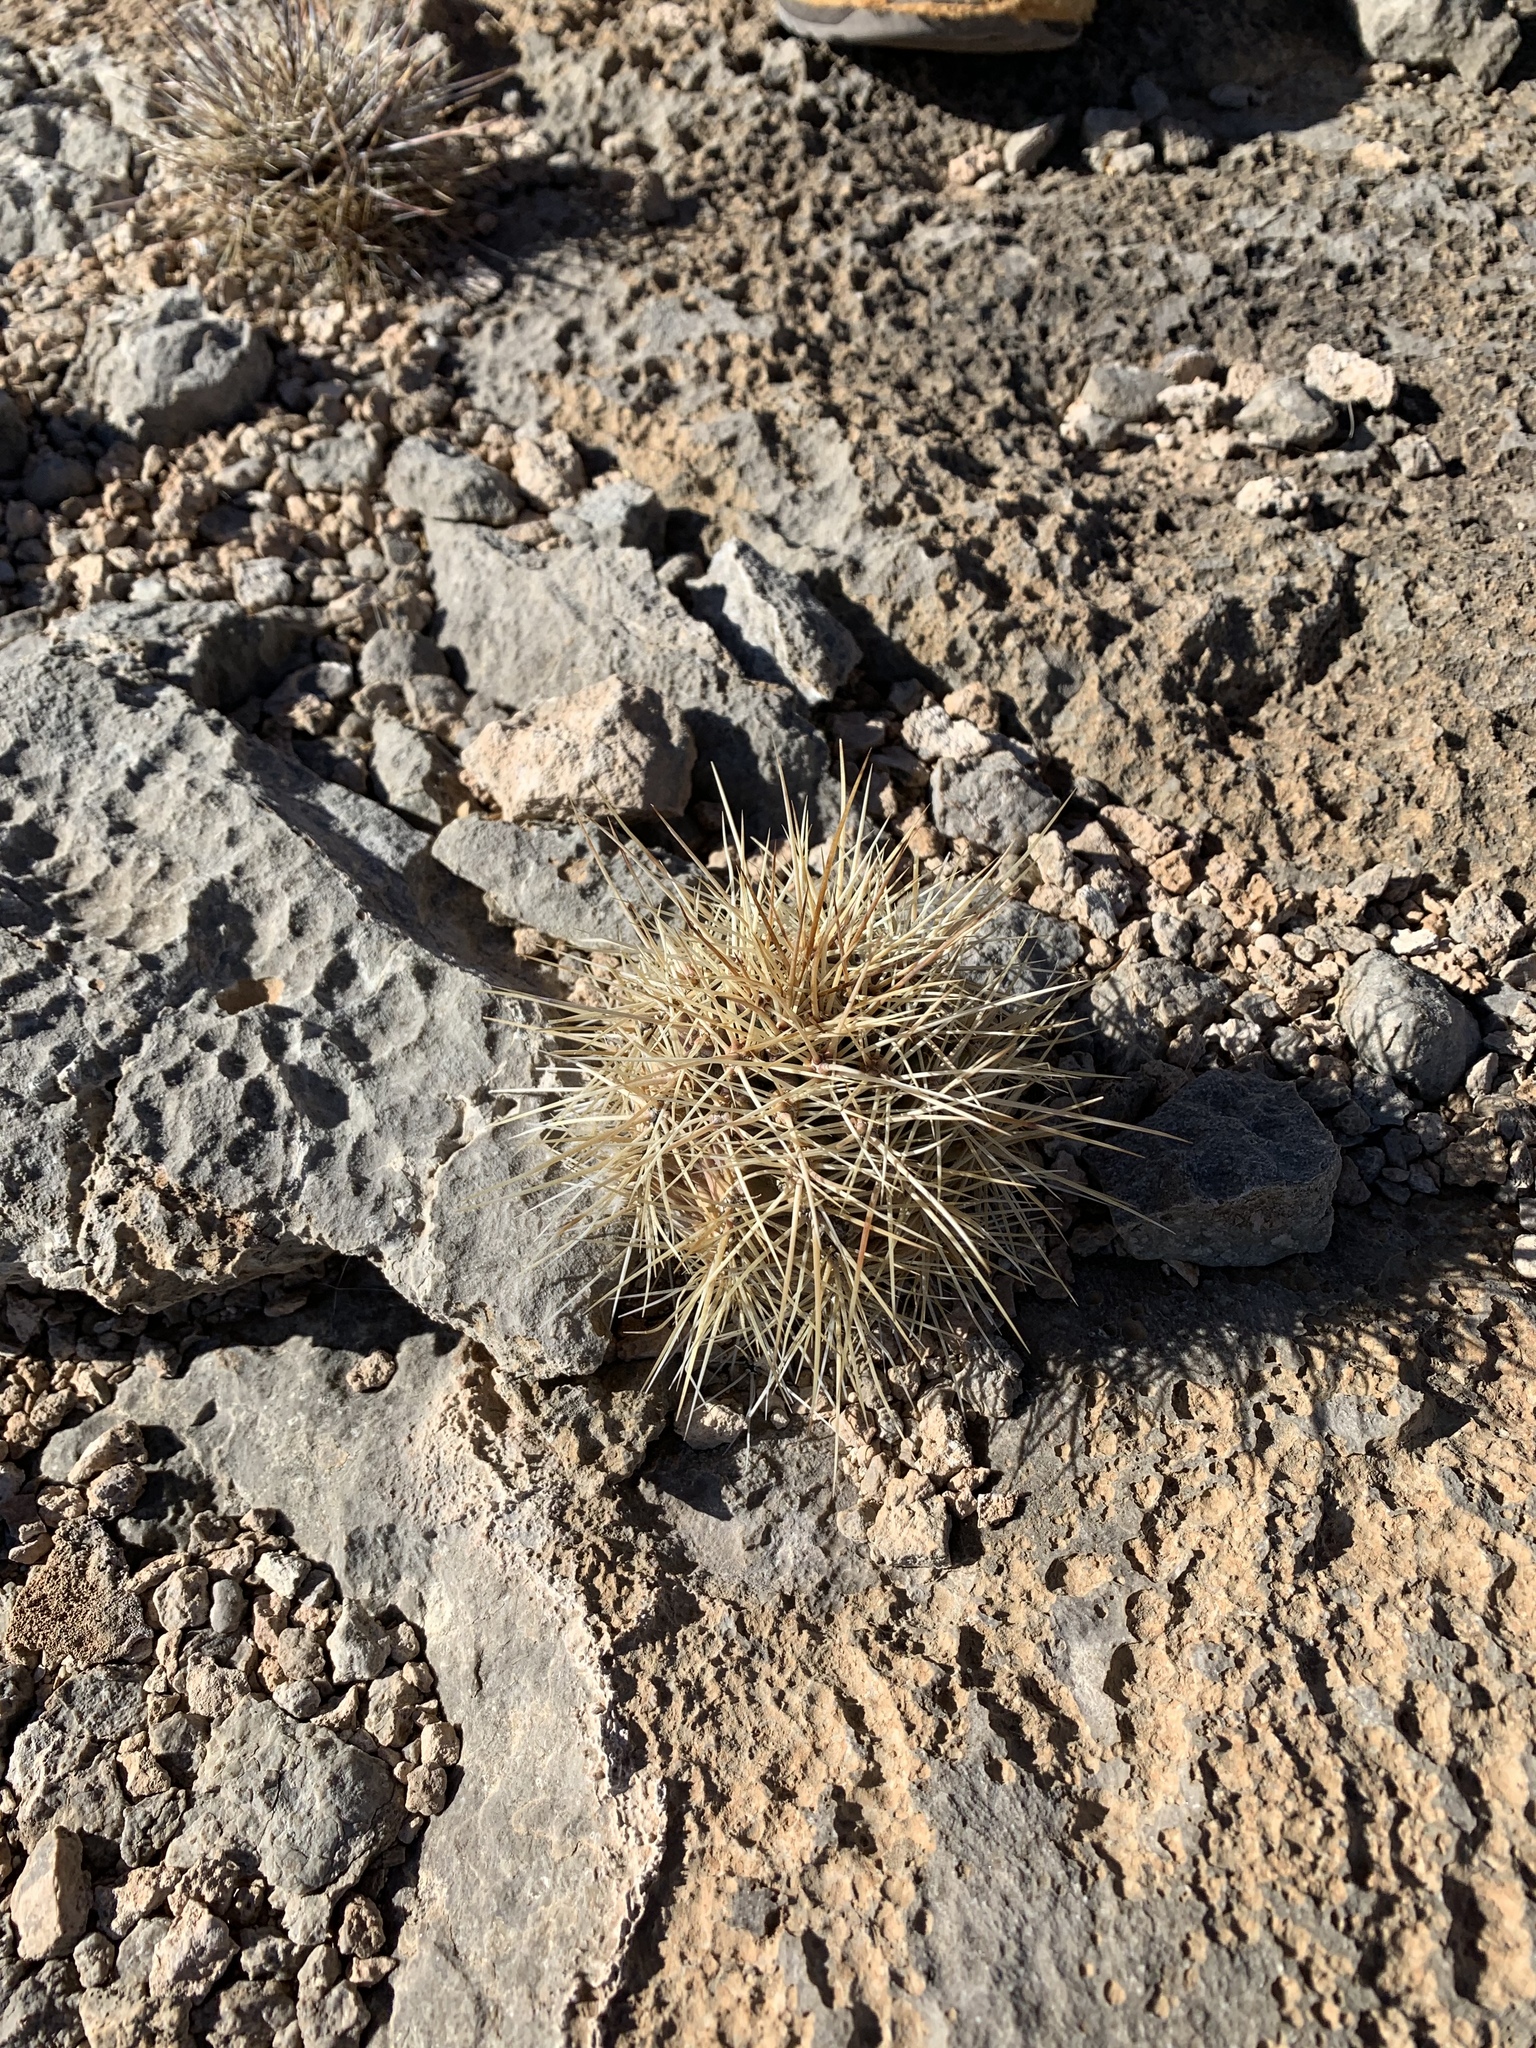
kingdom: Plantae
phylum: Tracheophyta
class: Magnoliopsida
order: Caryophyllales
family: Cactaceae
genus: Echinocereus
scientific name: Echinocereus coccineus
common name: Scarlet hedgehog cactus
